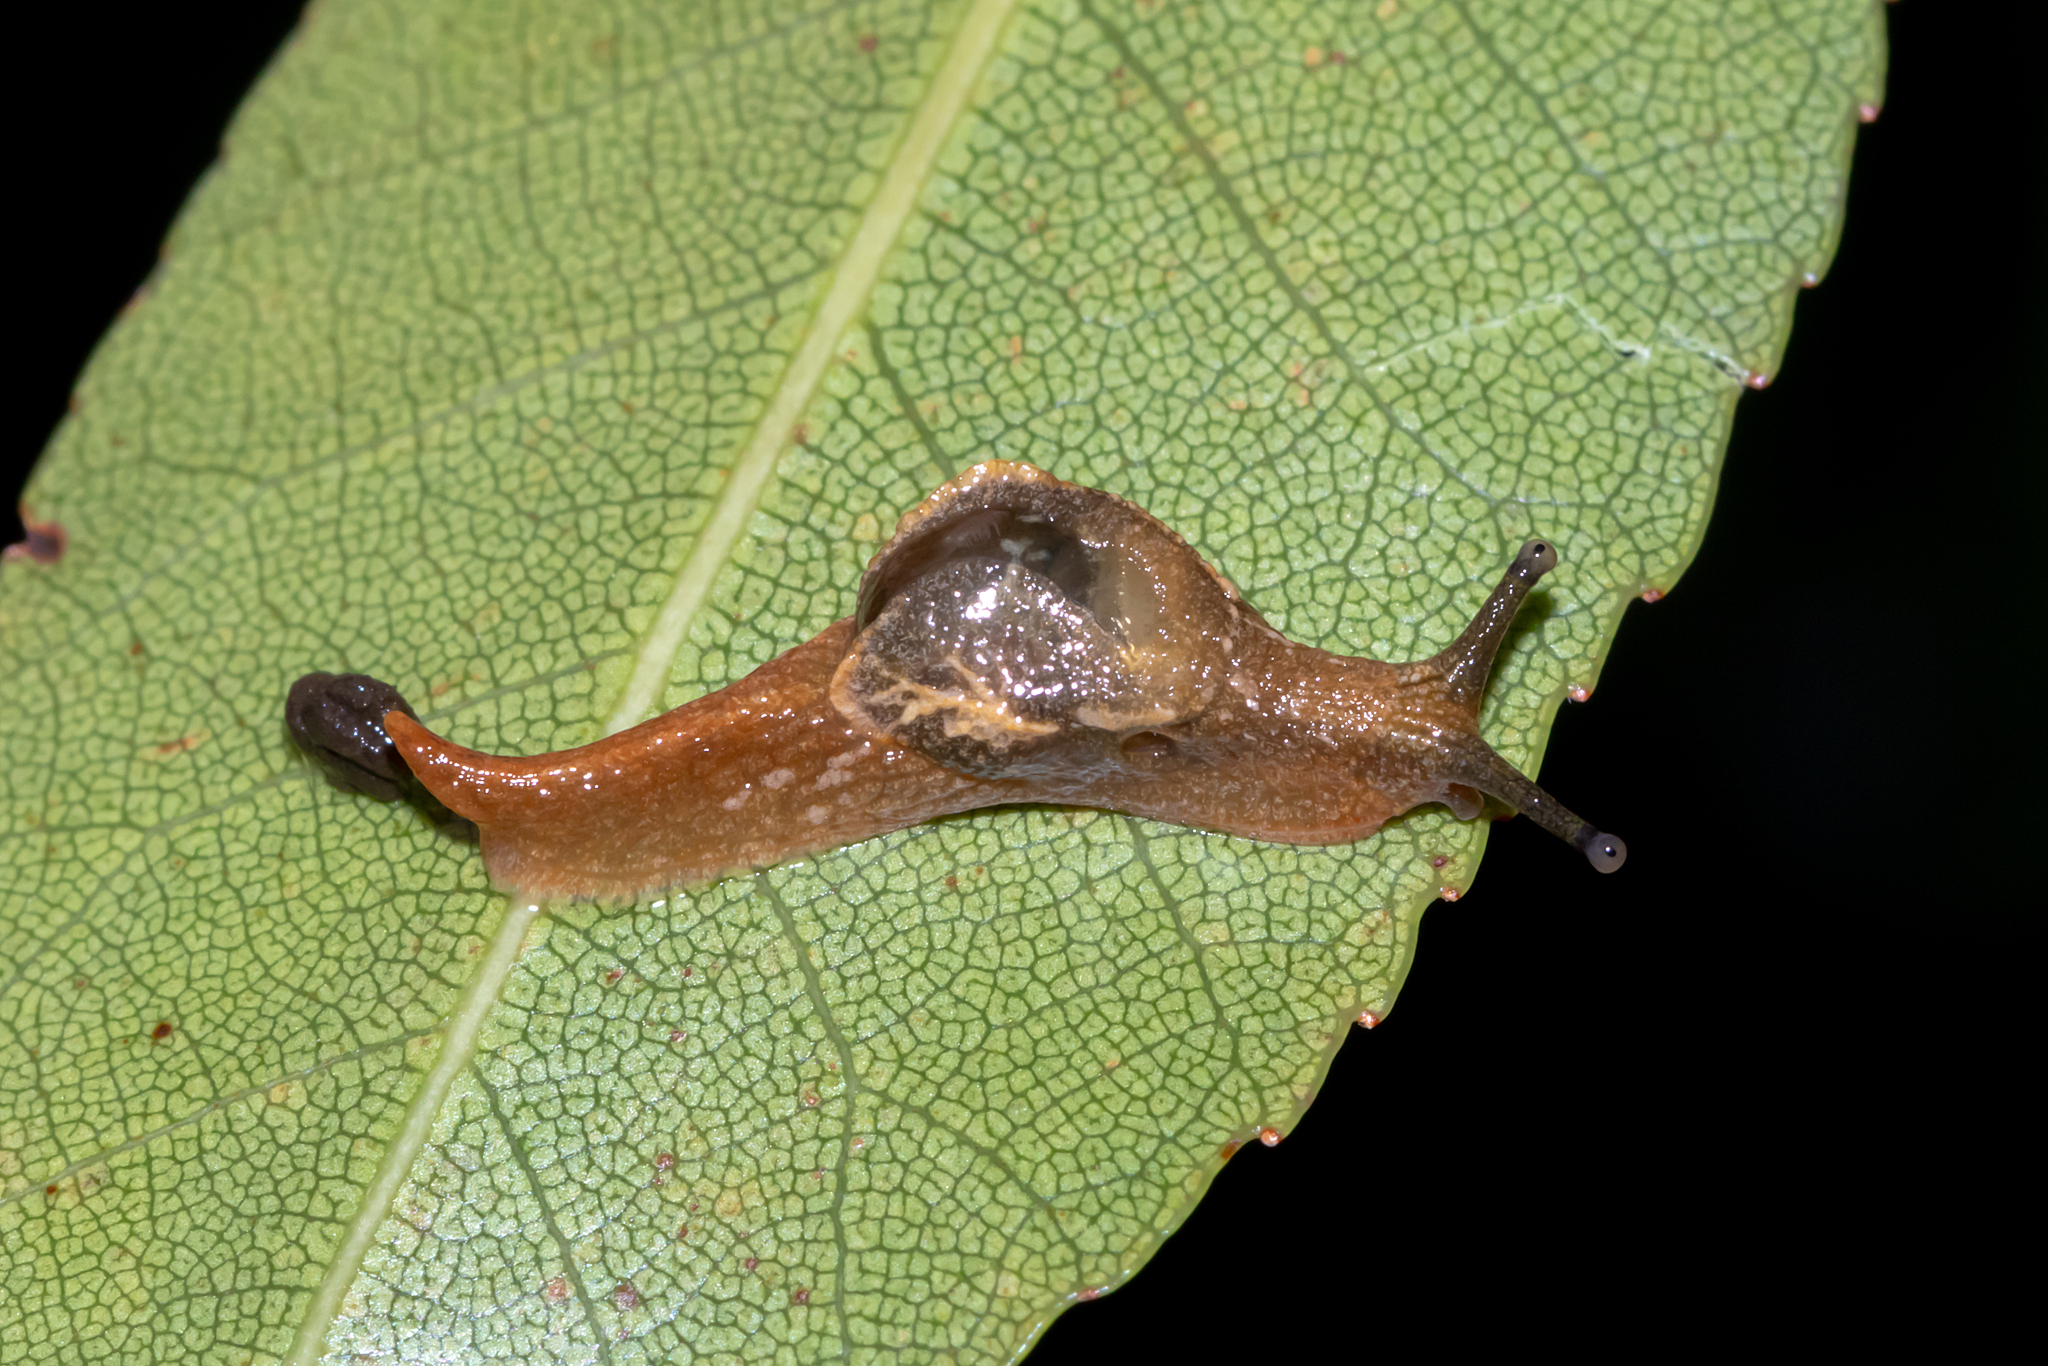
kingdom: Animalia
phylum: Mollusca
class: Gastropoda
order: Stylommatophora
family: Helicarionidae
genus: Cucullarion
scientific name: Cucullarion albimaculosus
